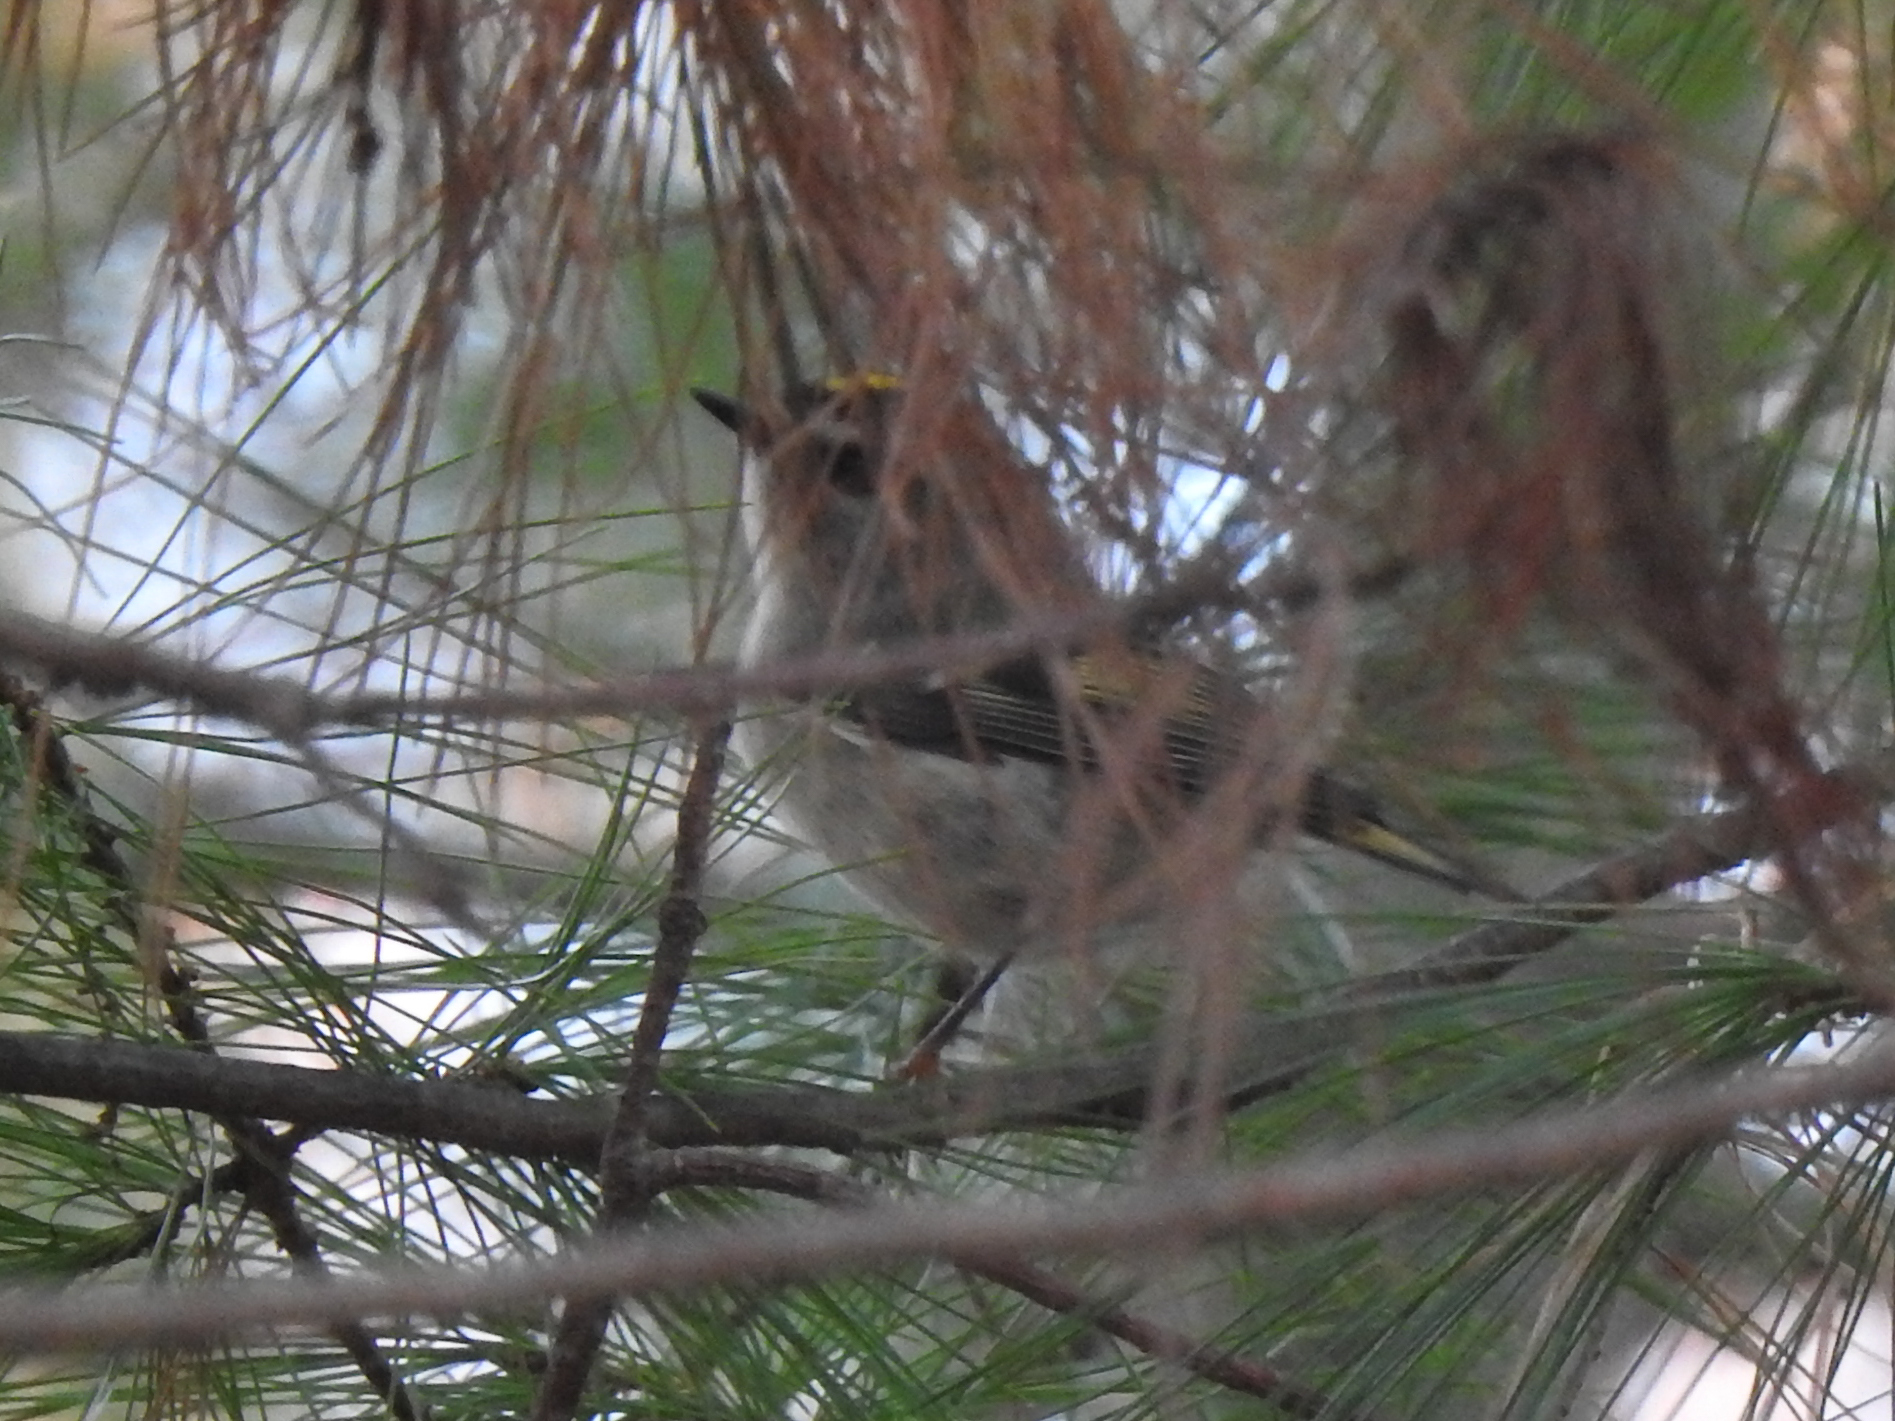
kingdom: Animalia
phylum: Chordata
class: Aves
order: Passeriformes
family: Regulidae
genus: Regulus
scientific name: Regulus satrapa
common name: Golden-crowned kinglet
